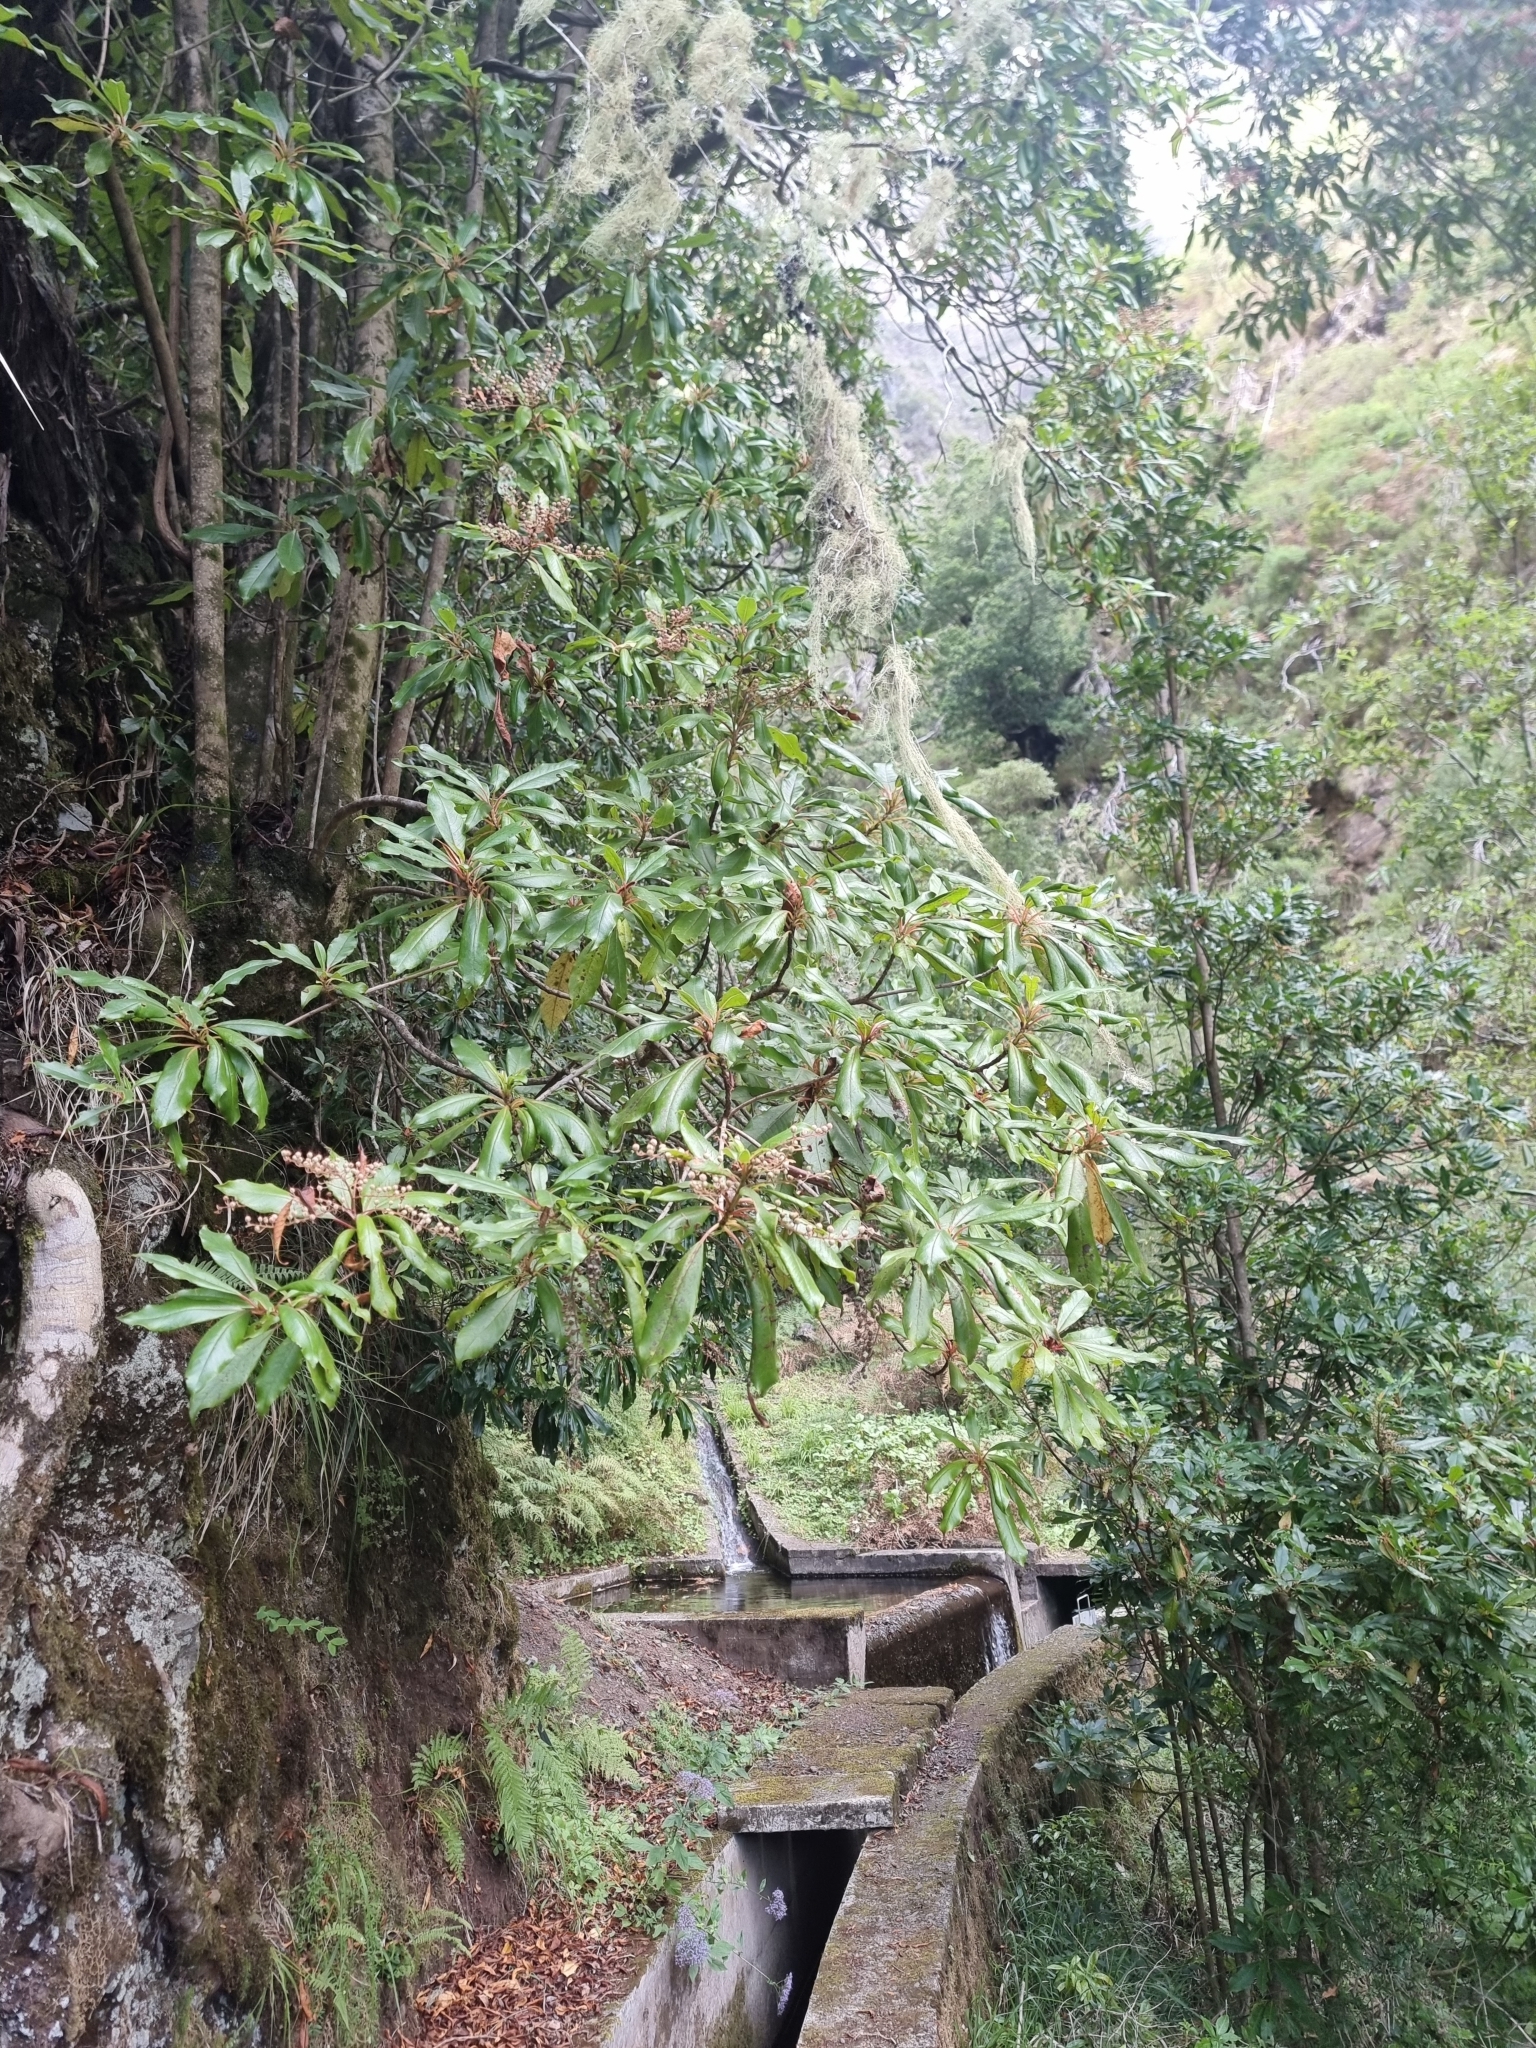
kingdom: Plantae
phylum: Tracheophyta
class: Magnoliopsida
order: Ericales
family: Clethraceae
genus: Clethra
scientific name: Clethra arborea
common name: Lily-of-the-valley-tree
